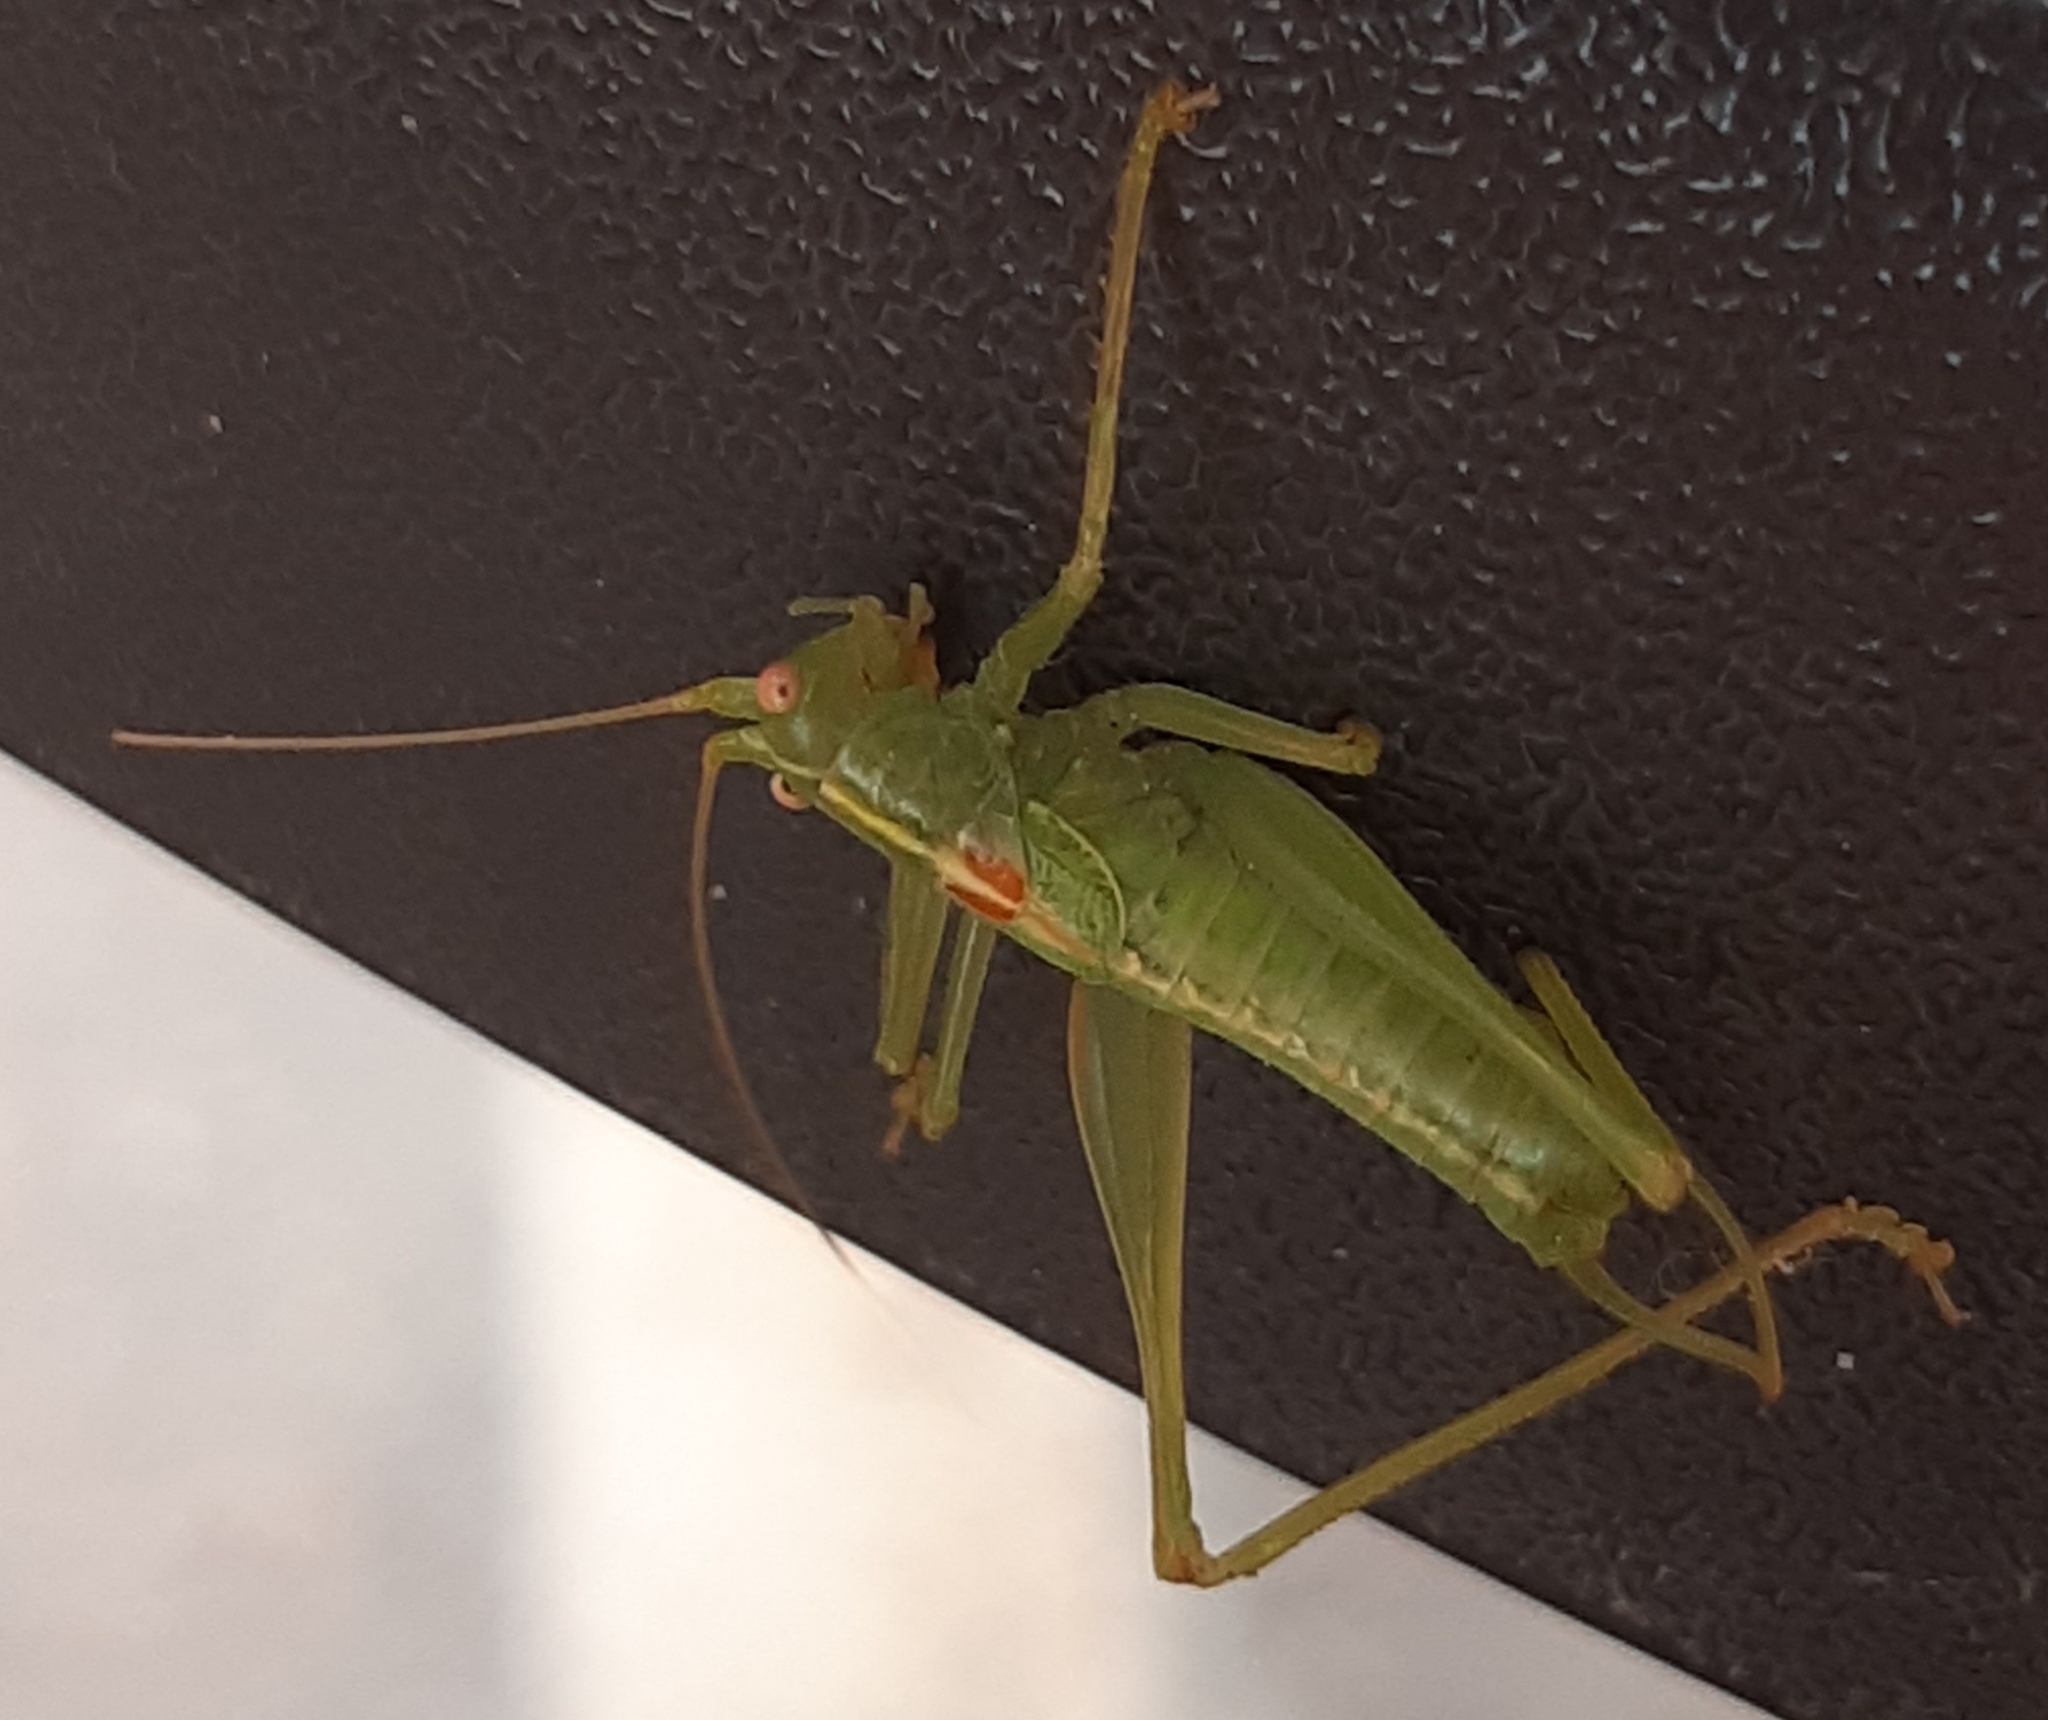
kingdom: Animalia
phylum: Arthropoda
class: Insecta
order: Orthoptera
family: Tettigoniidae
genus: Meconema
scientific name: Meconema meridionale
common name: Southern oak bush-cricket
